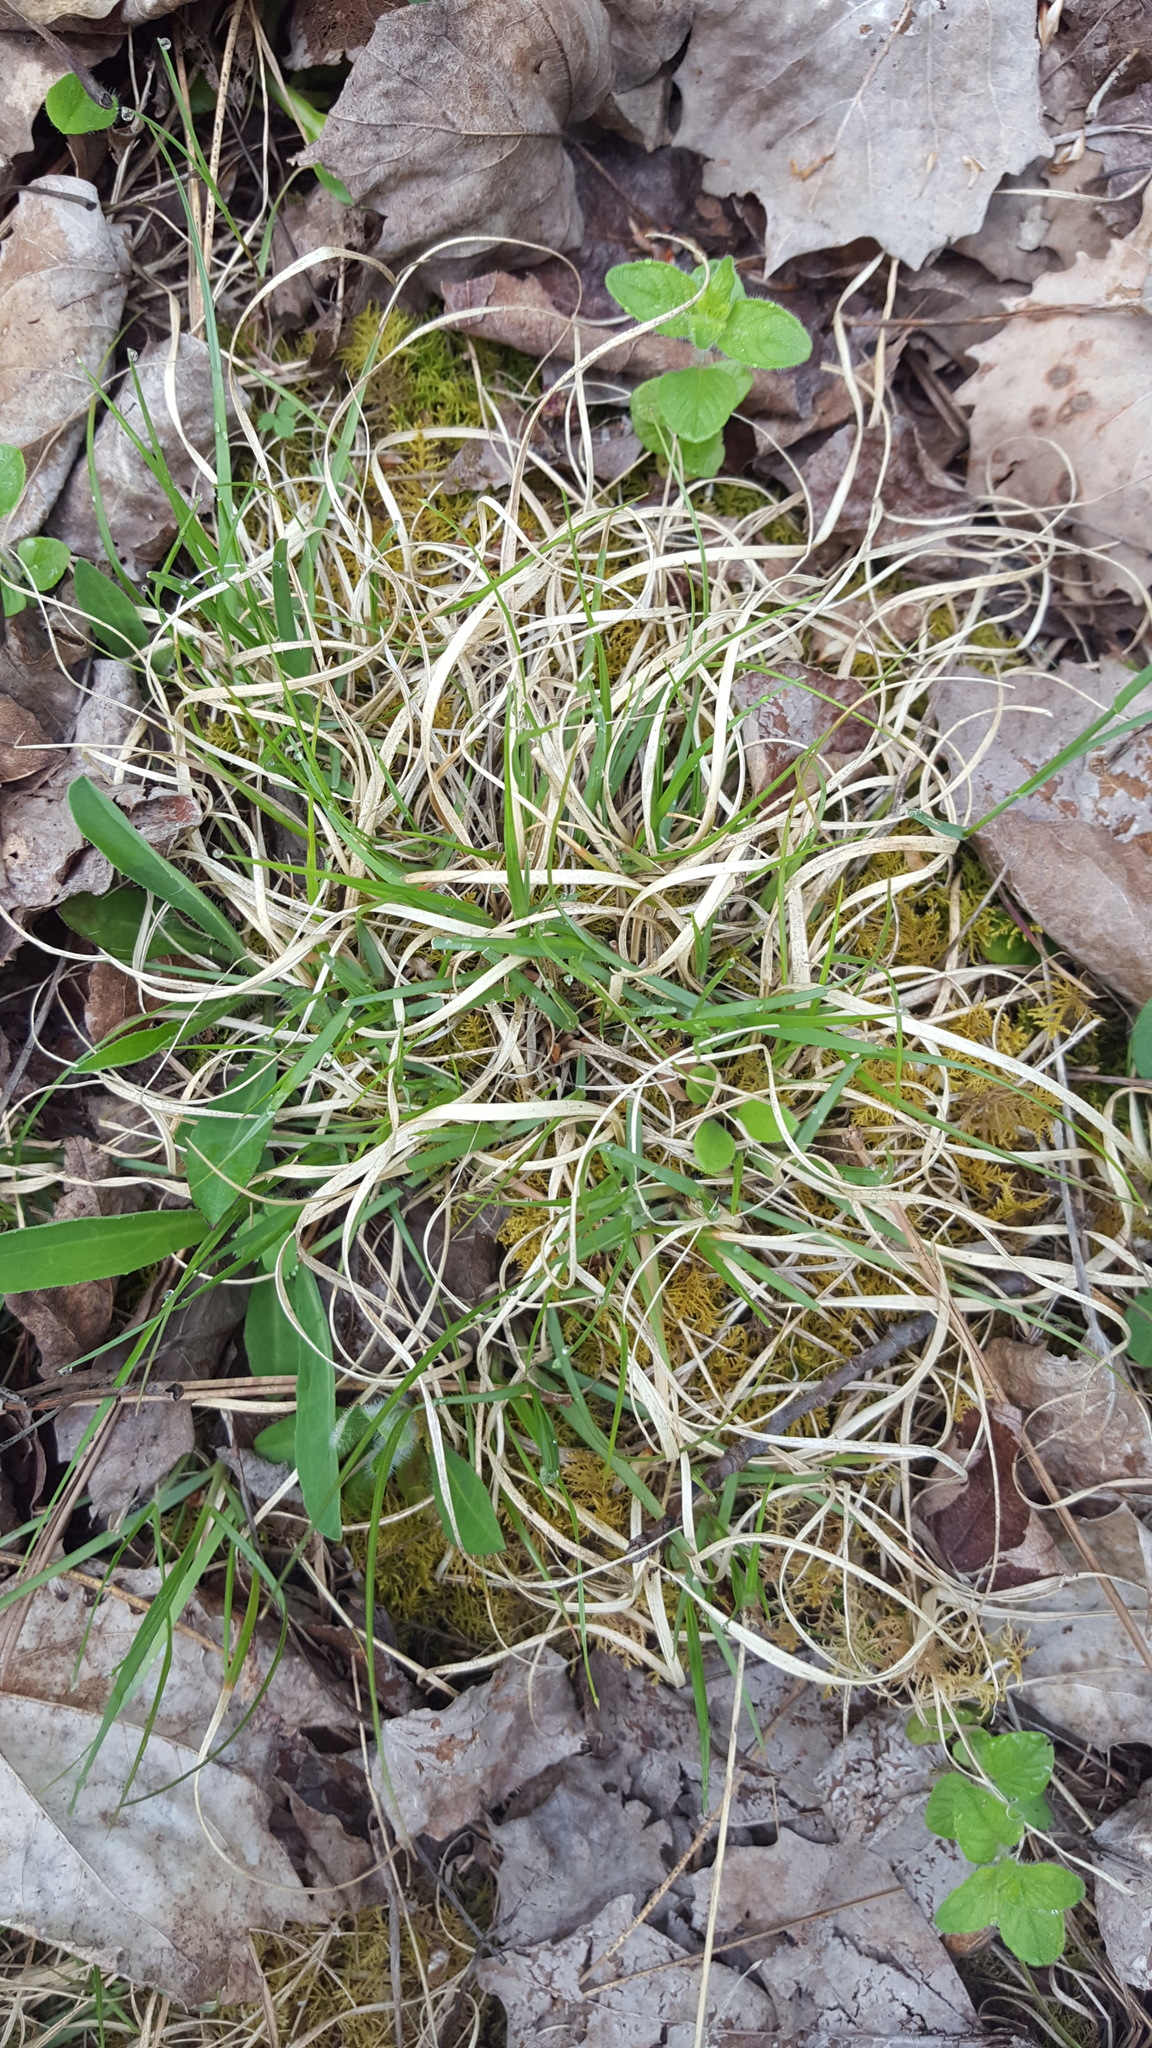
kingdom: Plantae
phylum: Tracheophyta
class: Liliopsida
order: Poales
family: Poaceae
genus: Danthonia
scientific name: Danthonia spicata
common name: Common wild oatgrass
